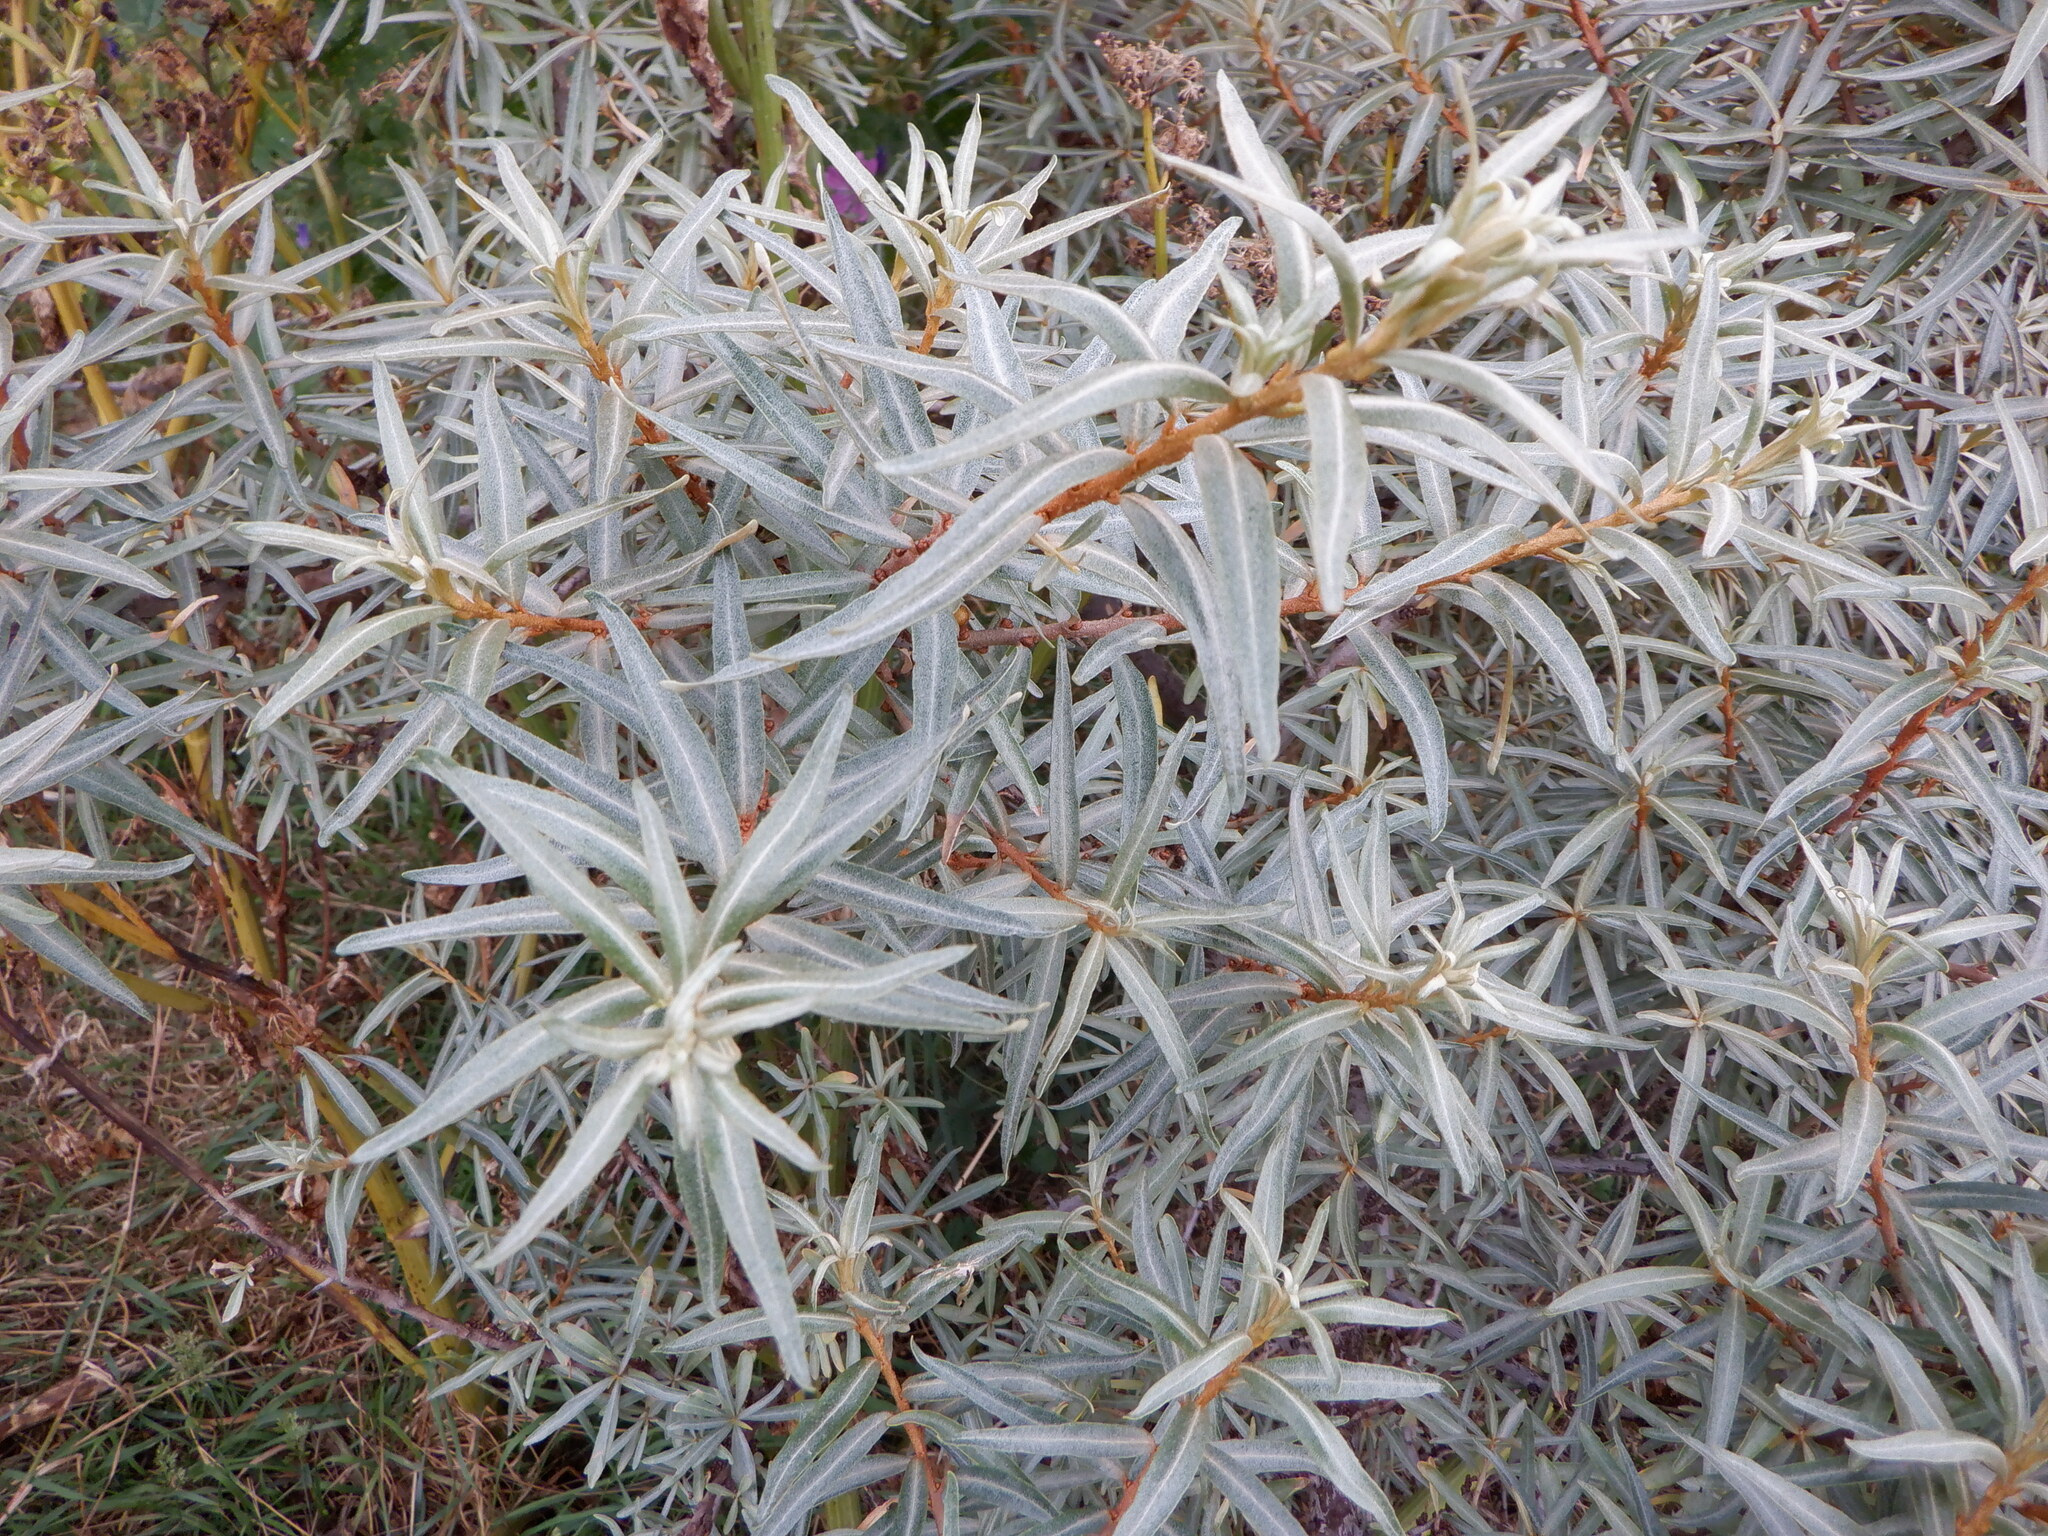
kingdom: Plantae
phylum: Tracheophyta
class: Magnoliopsida
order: Rosales
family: Elaeagnaceae
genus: Hippophae
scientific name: Hippophae rhamnoides
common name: Sea-buckthorn
